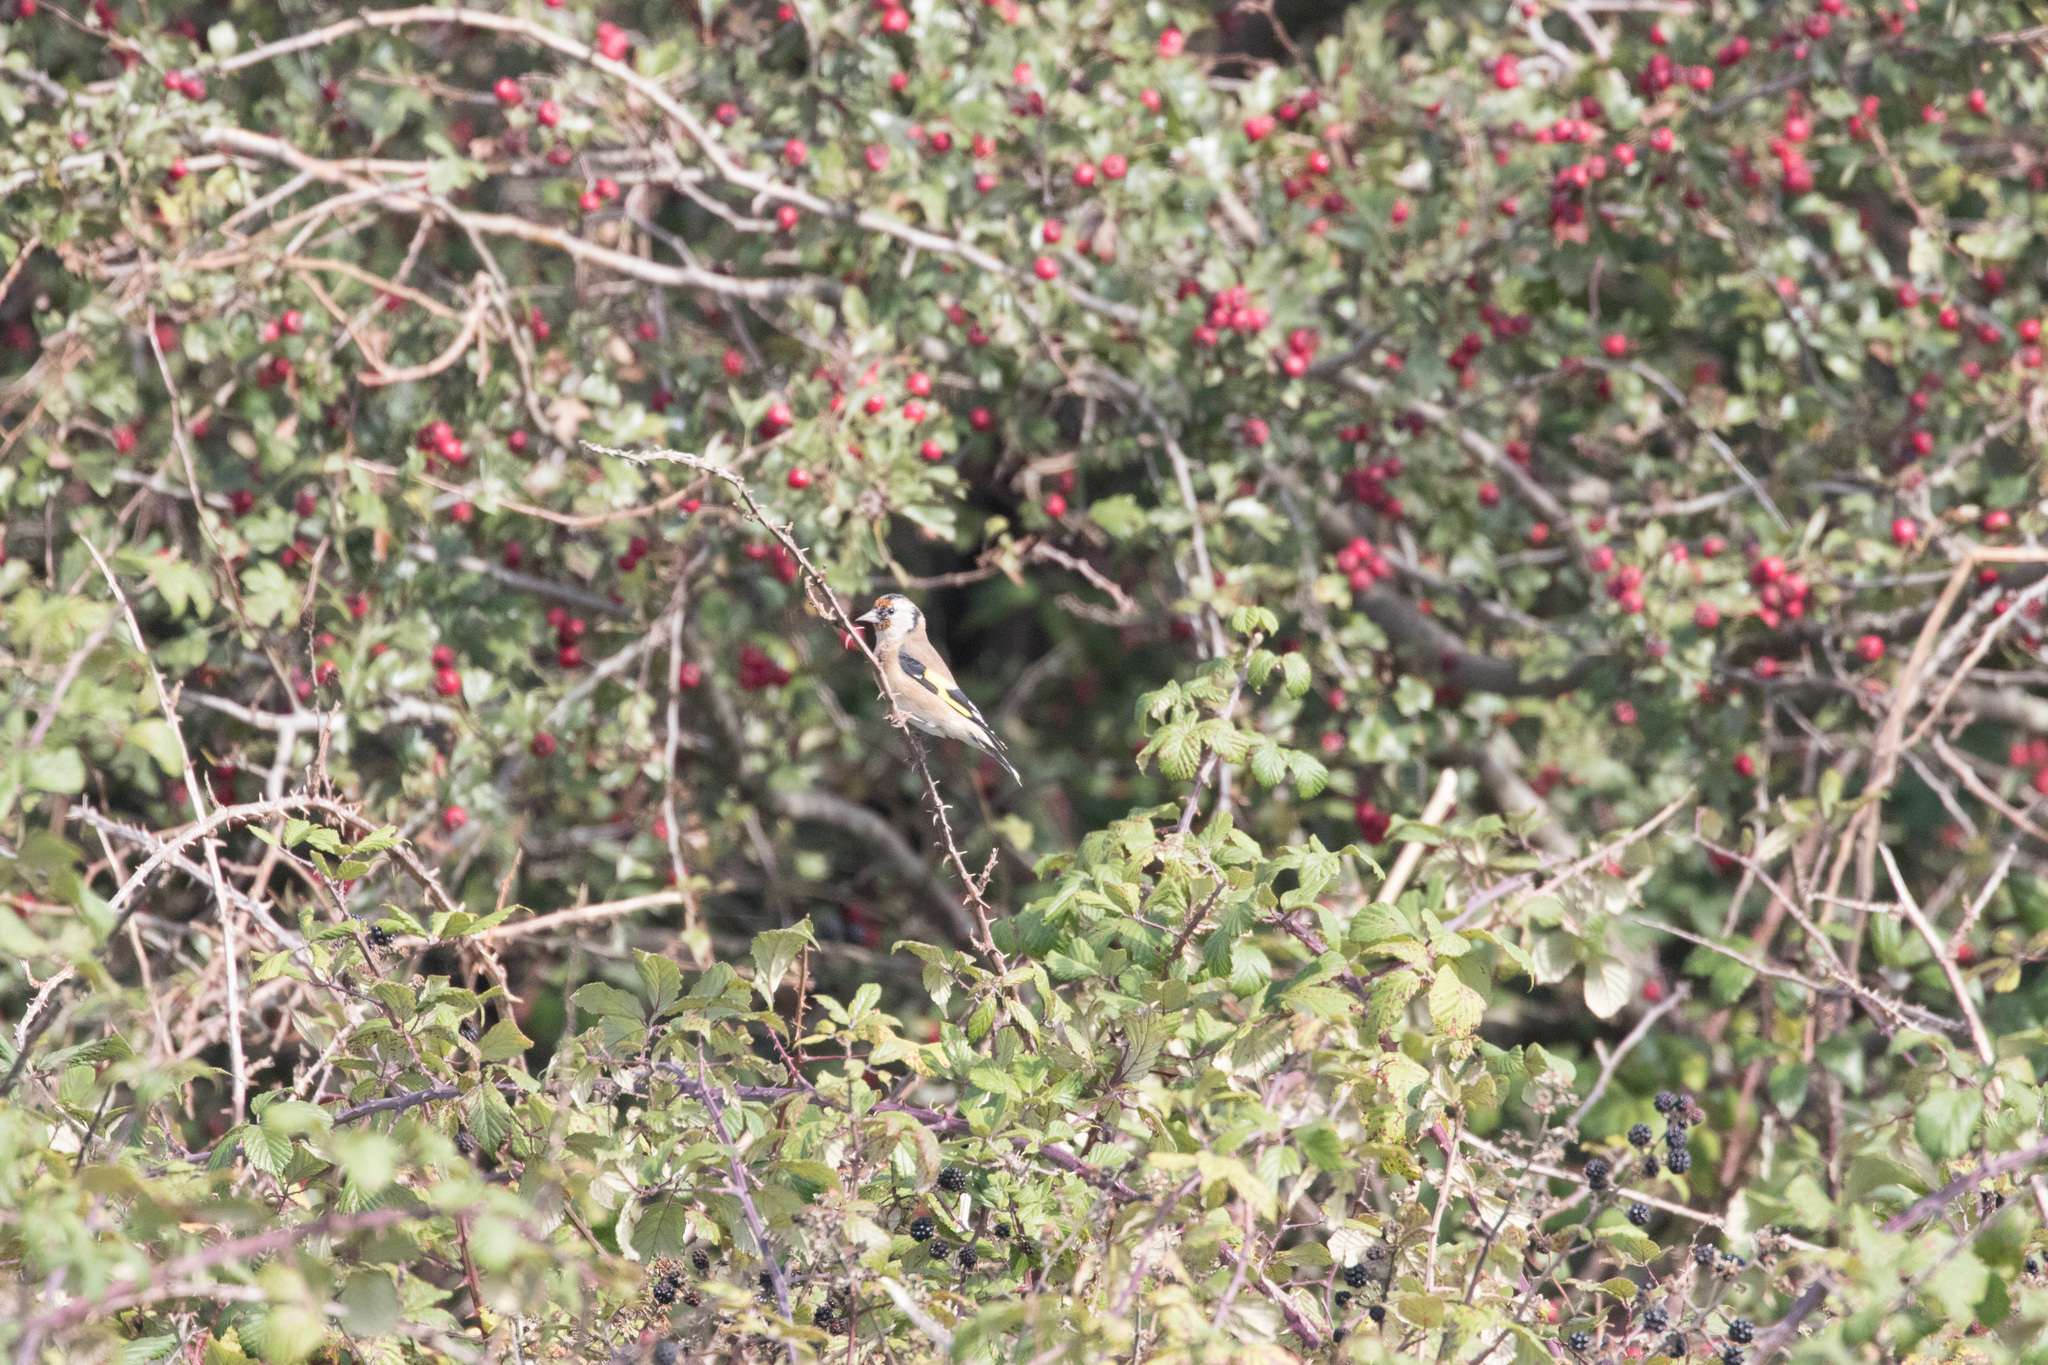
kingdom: Animalia
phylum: Chordata
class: Aves
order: Passeriformes
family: Fringillidae
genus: Carduelis
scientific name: Carduelis carduelis
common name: European goldfinch
